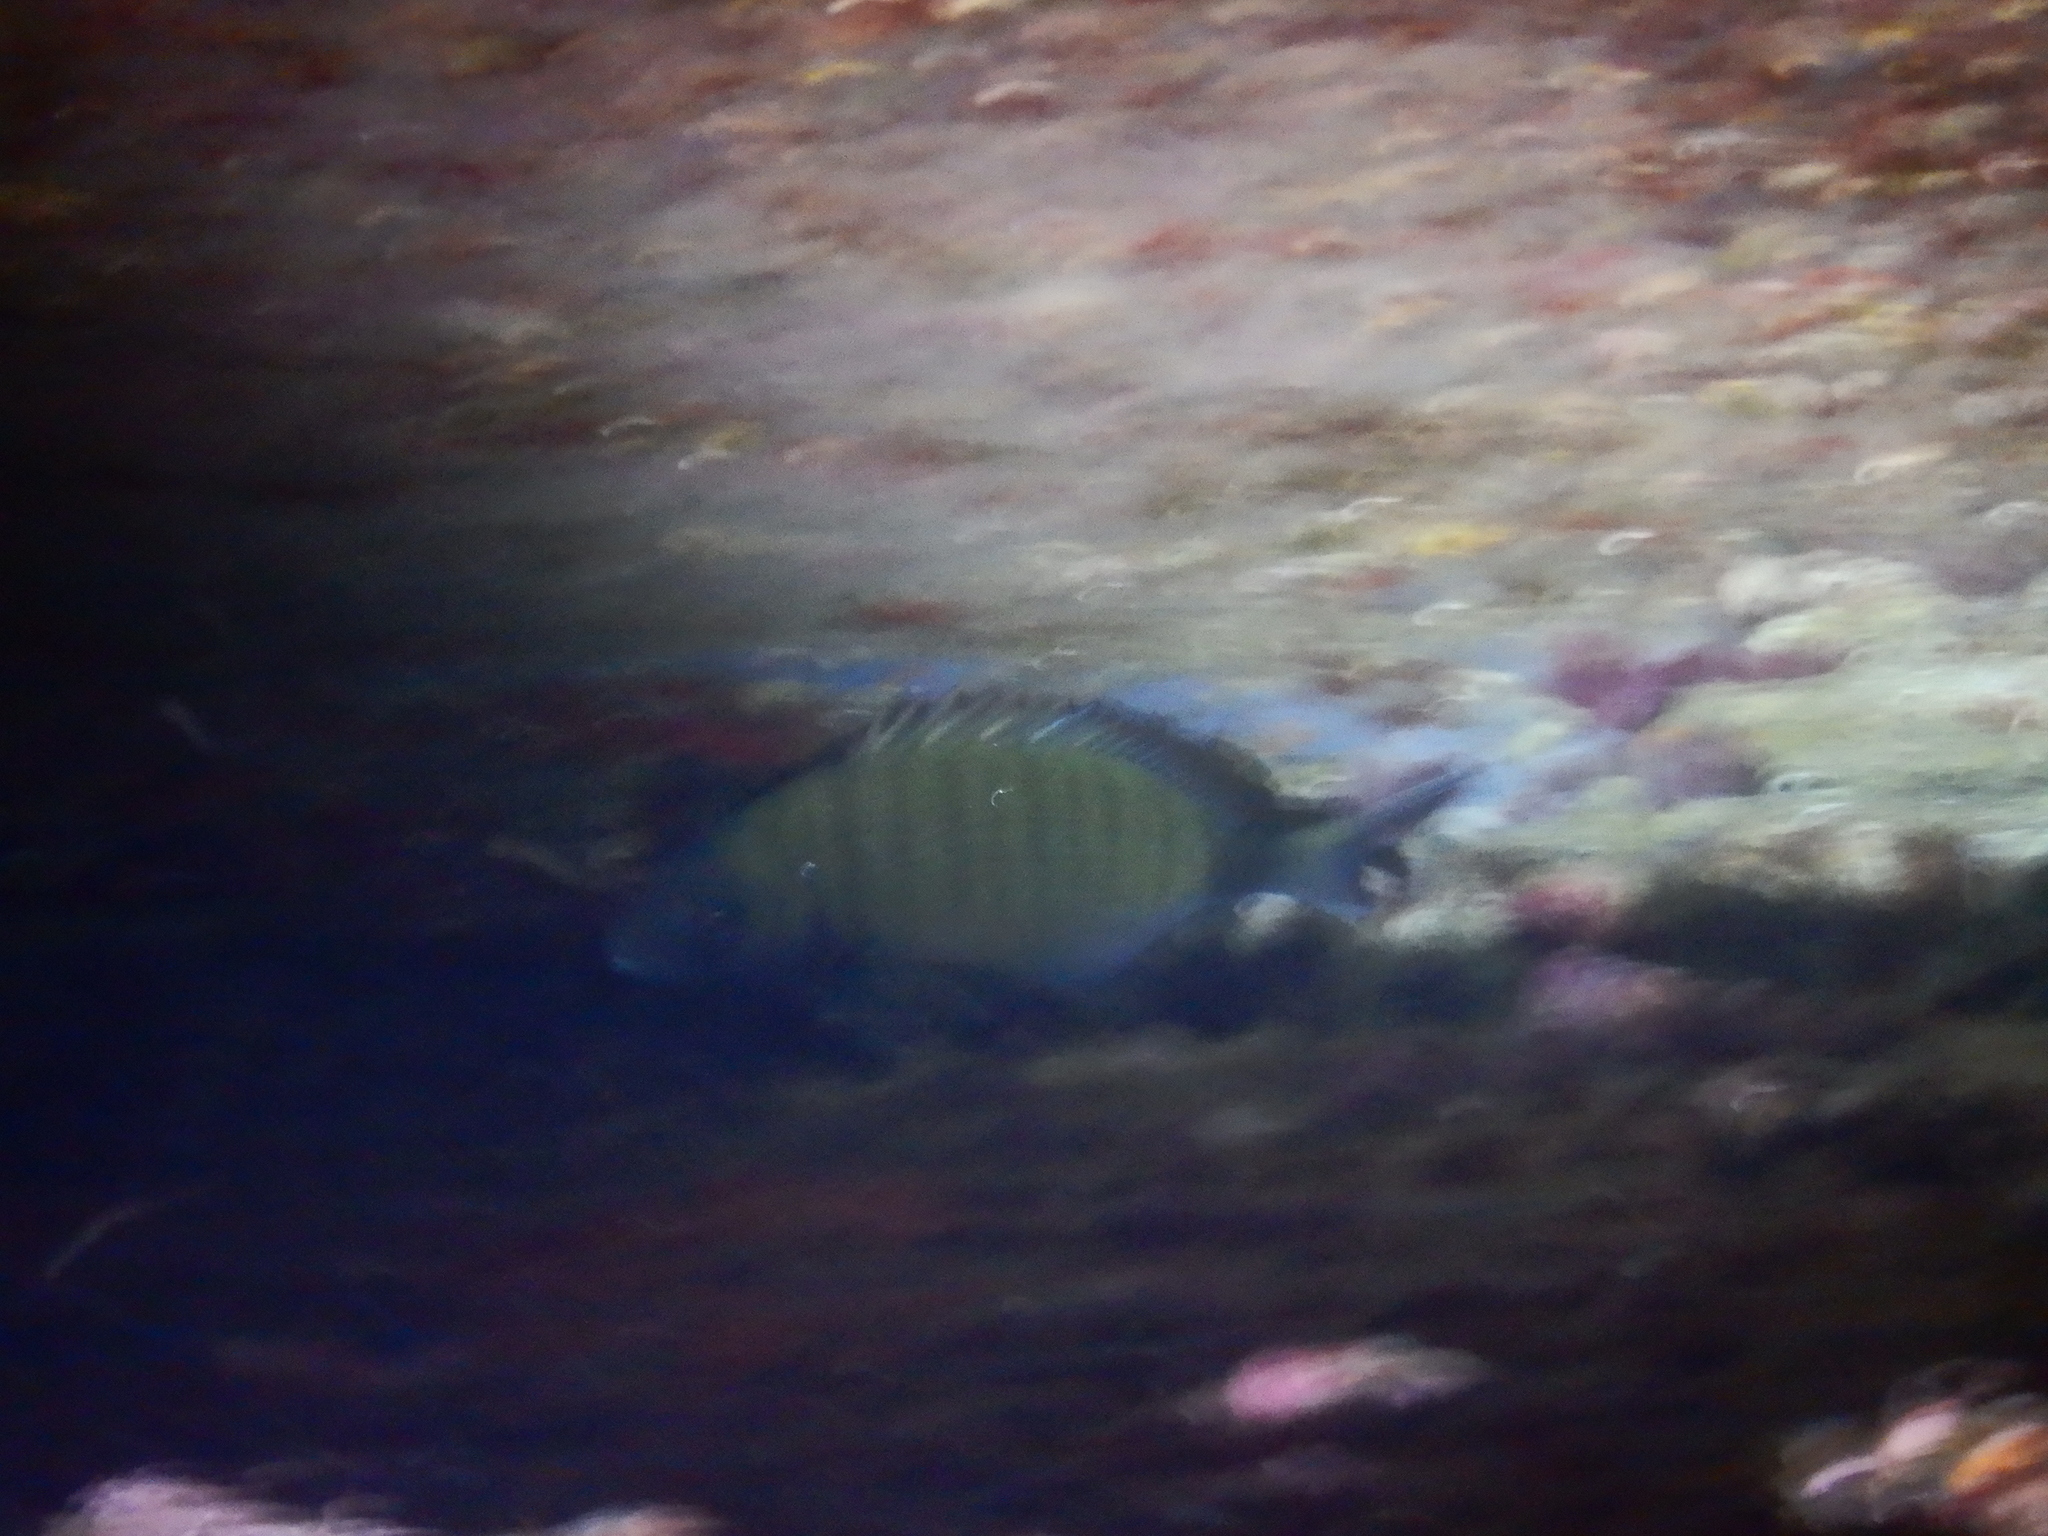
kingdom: Animalia
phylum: Chordata
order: Perciformes
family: Sparidae
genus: Diplodus
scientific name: Diplodus sargus
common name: White seabream
